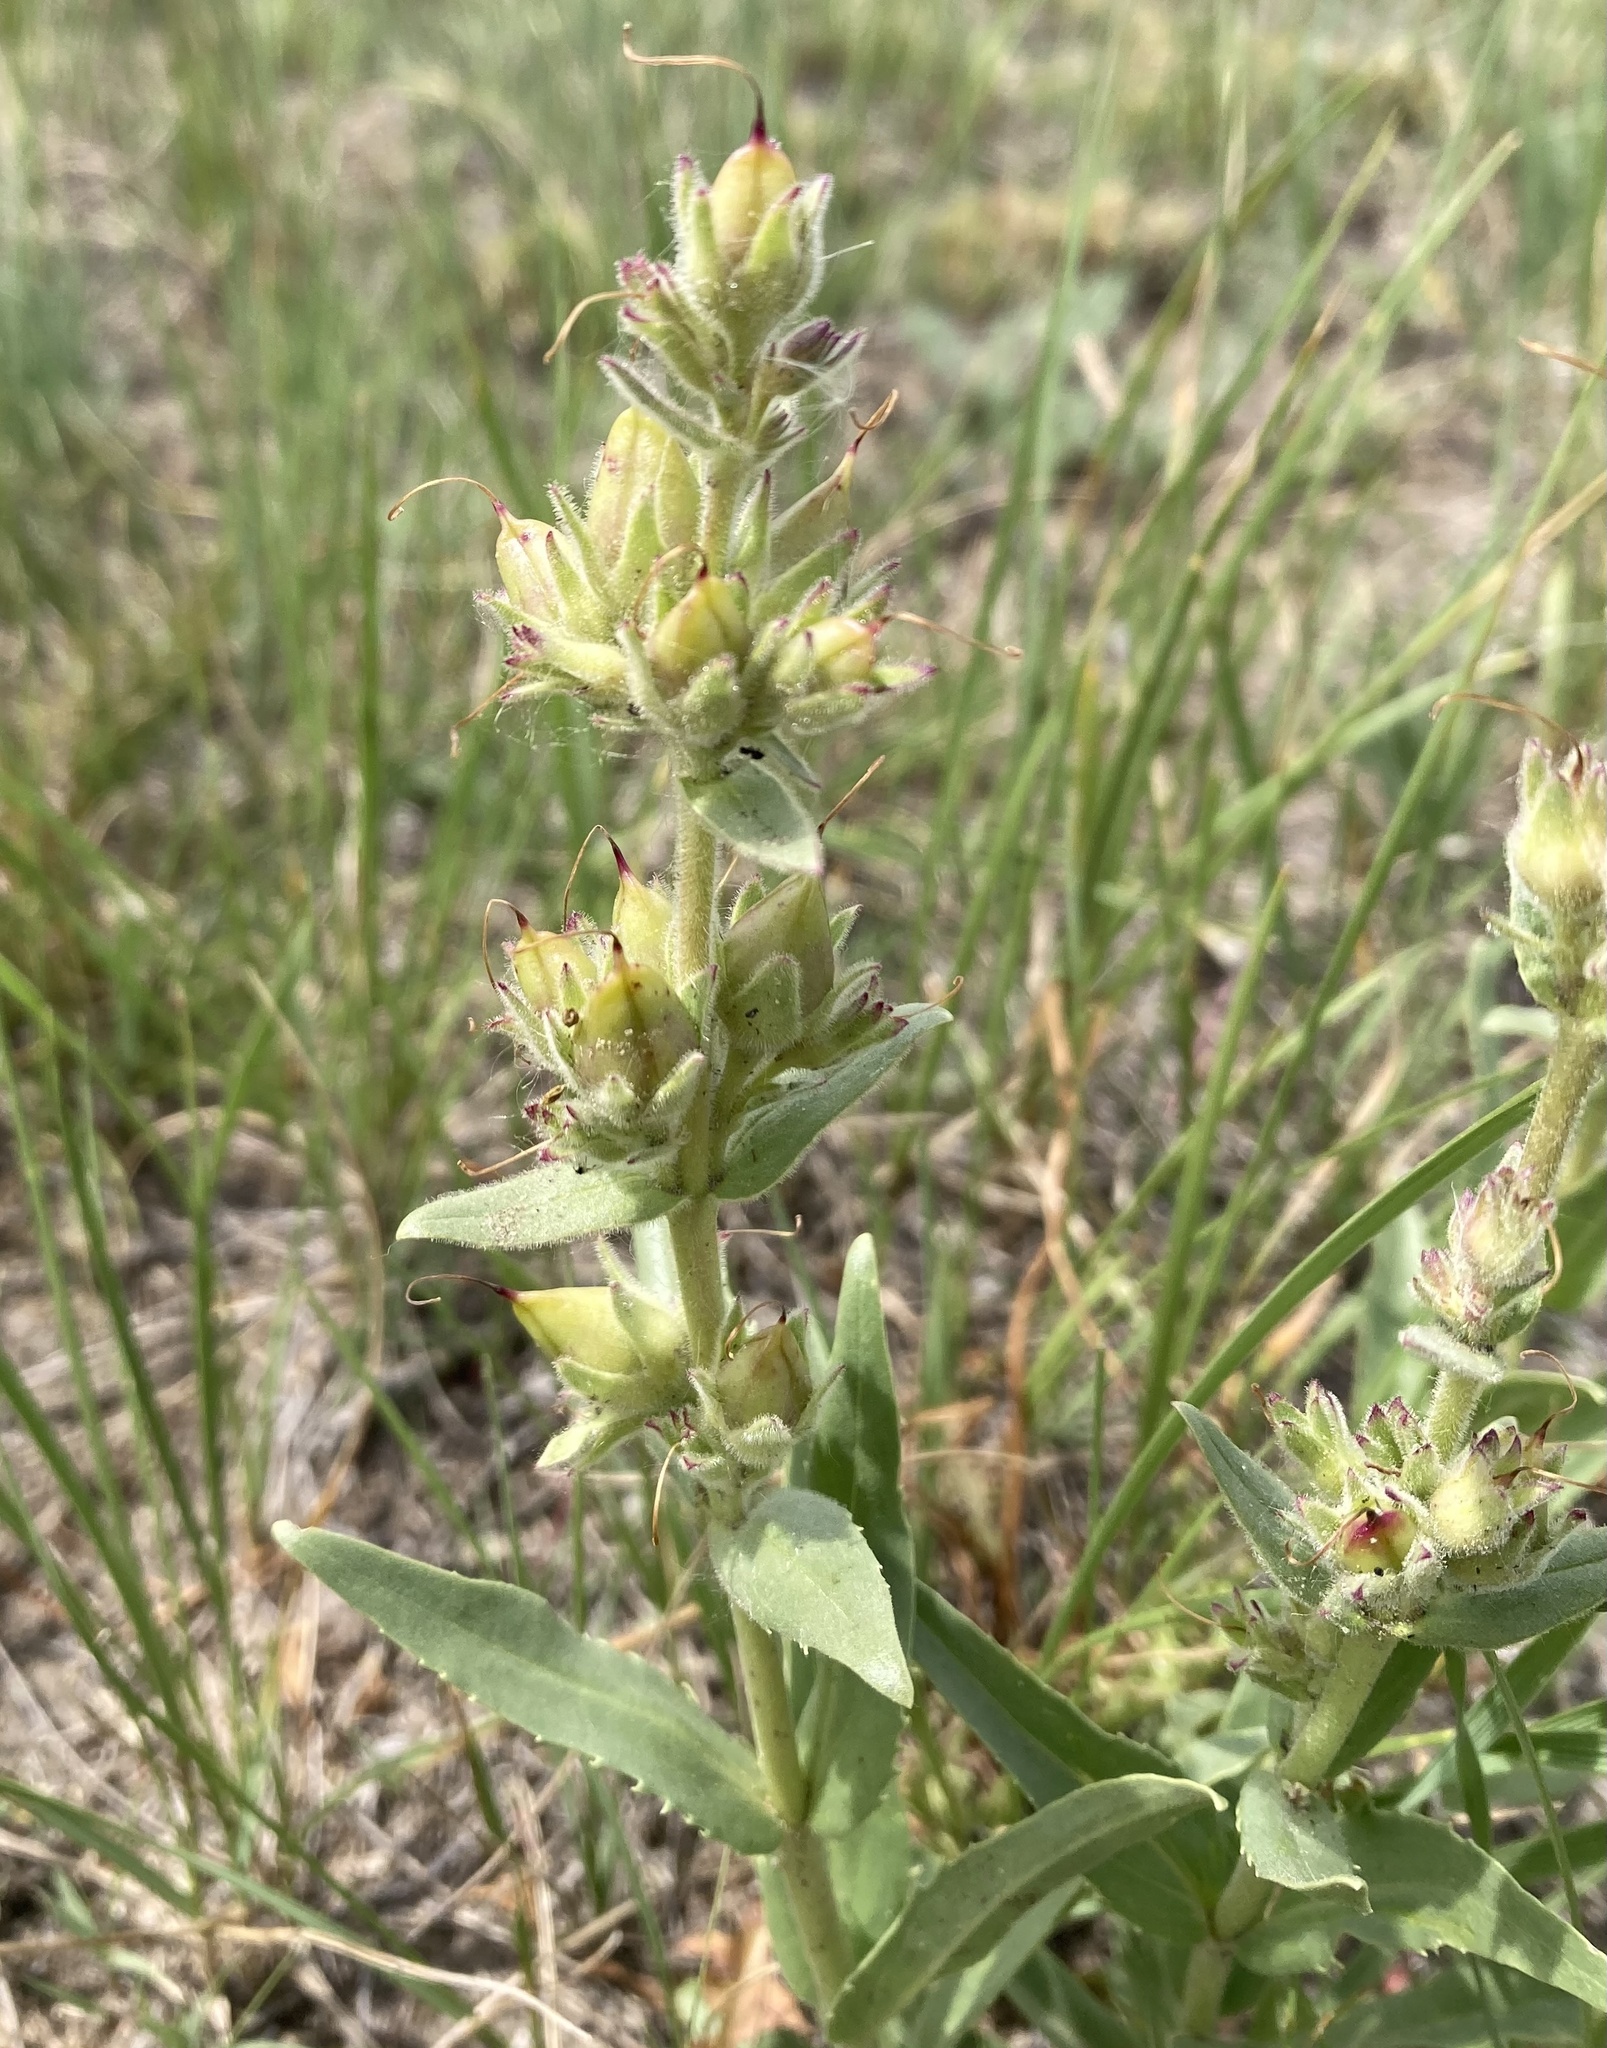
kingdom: Plantae
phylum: Tracheophyta
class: Magnoliopsida
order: Lamiales
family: Plantaginaceae
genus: Penstemon
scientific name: Penstemon albidus
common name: White beardtongue
